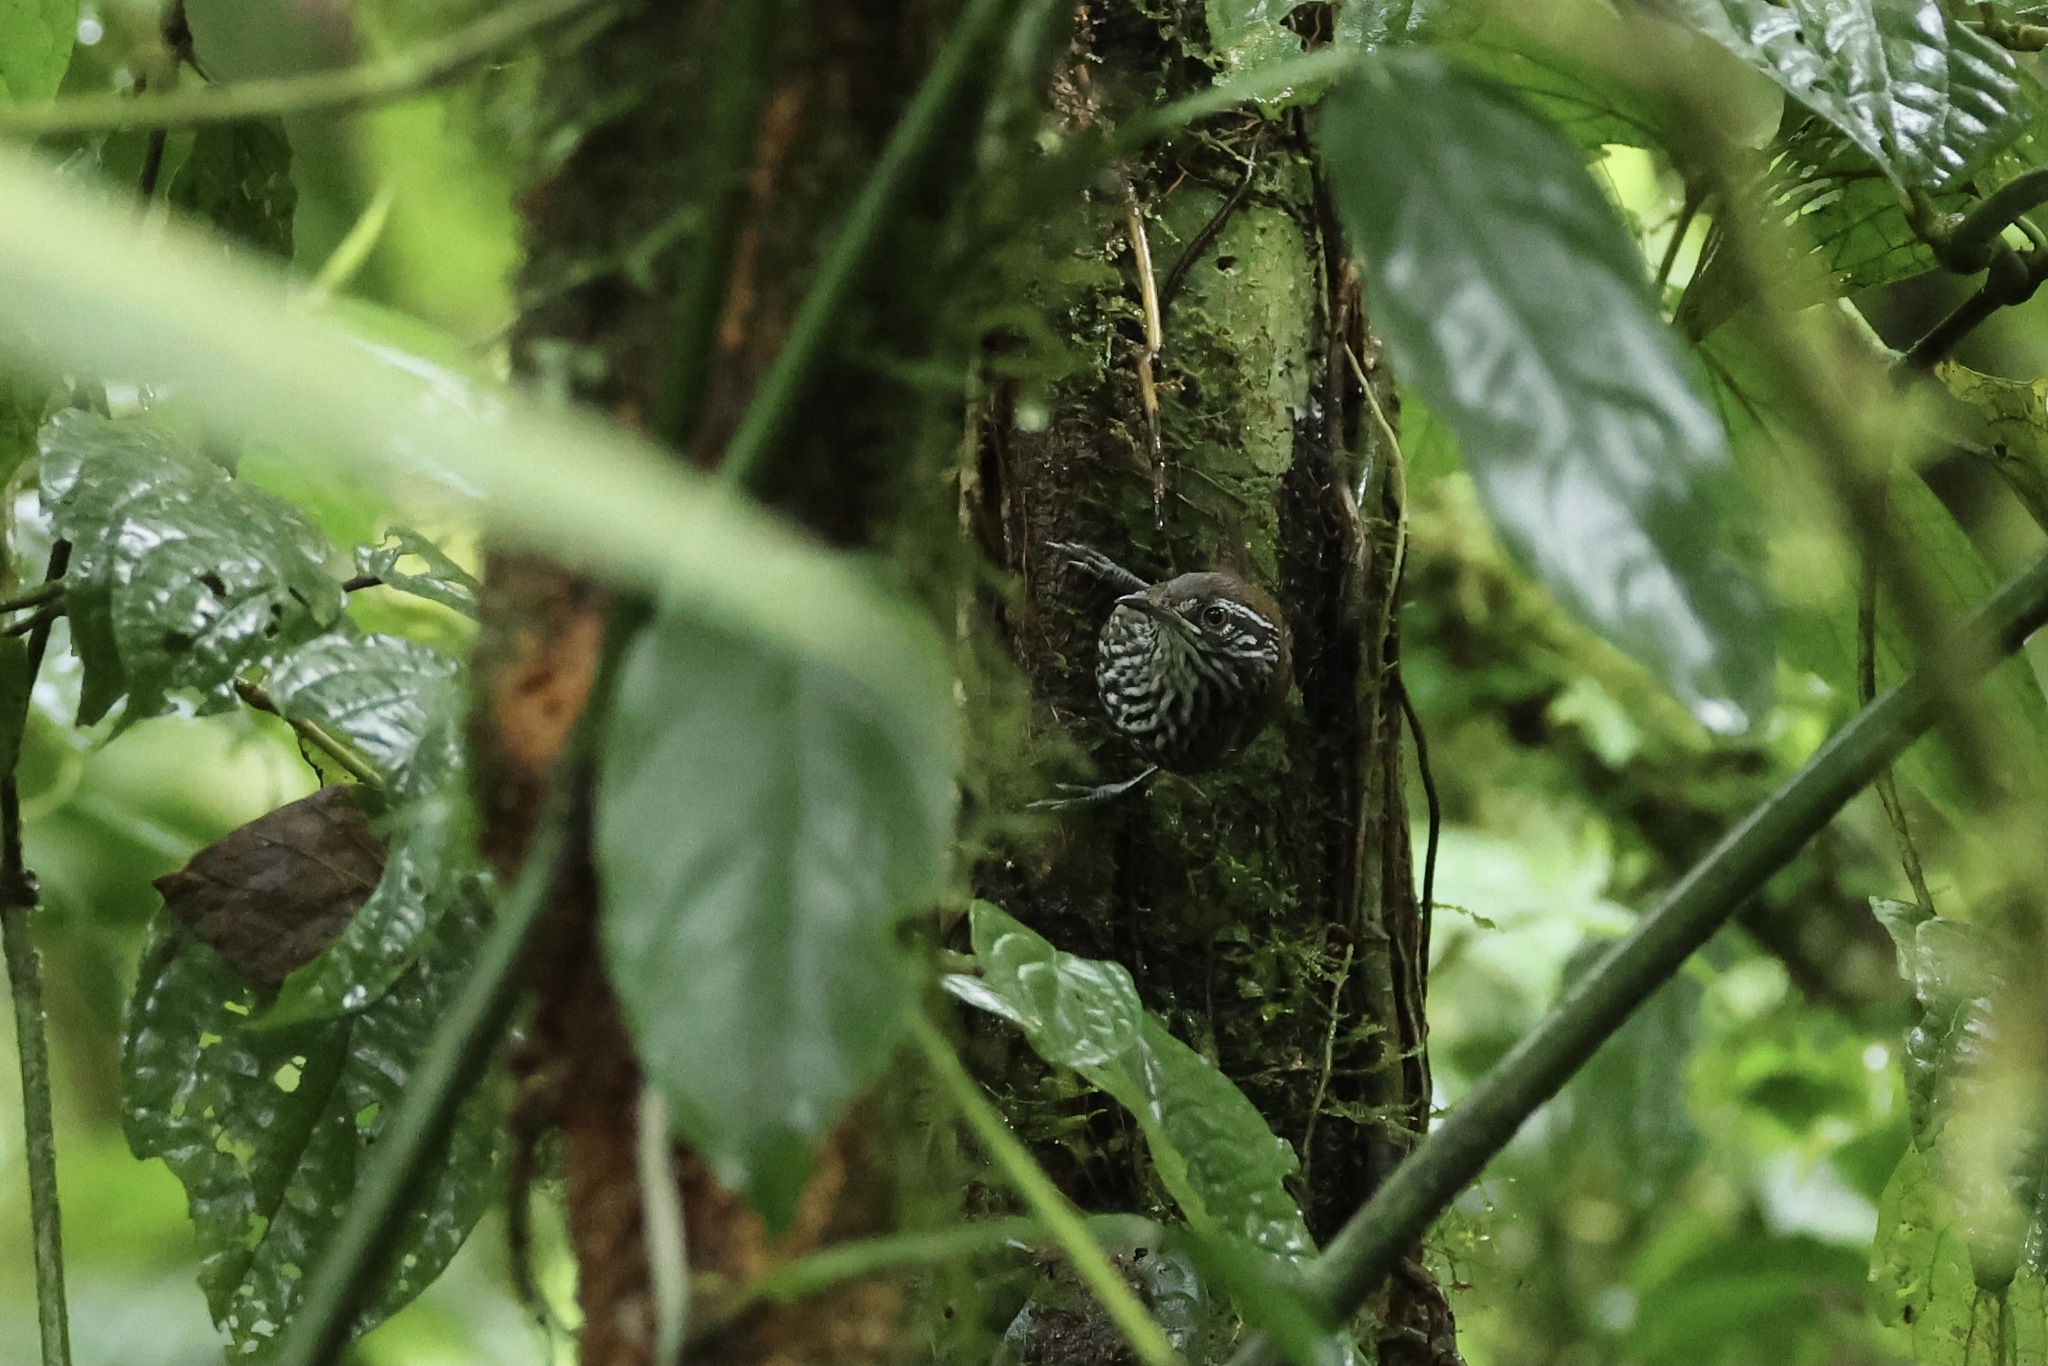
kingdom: Animalia
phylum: Chordata
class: Aves
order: Passeriformes
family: Troglodytidae
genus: Cantorchilus
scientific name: Cantorchilus thoracicus
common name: Stripe-breasted wren
